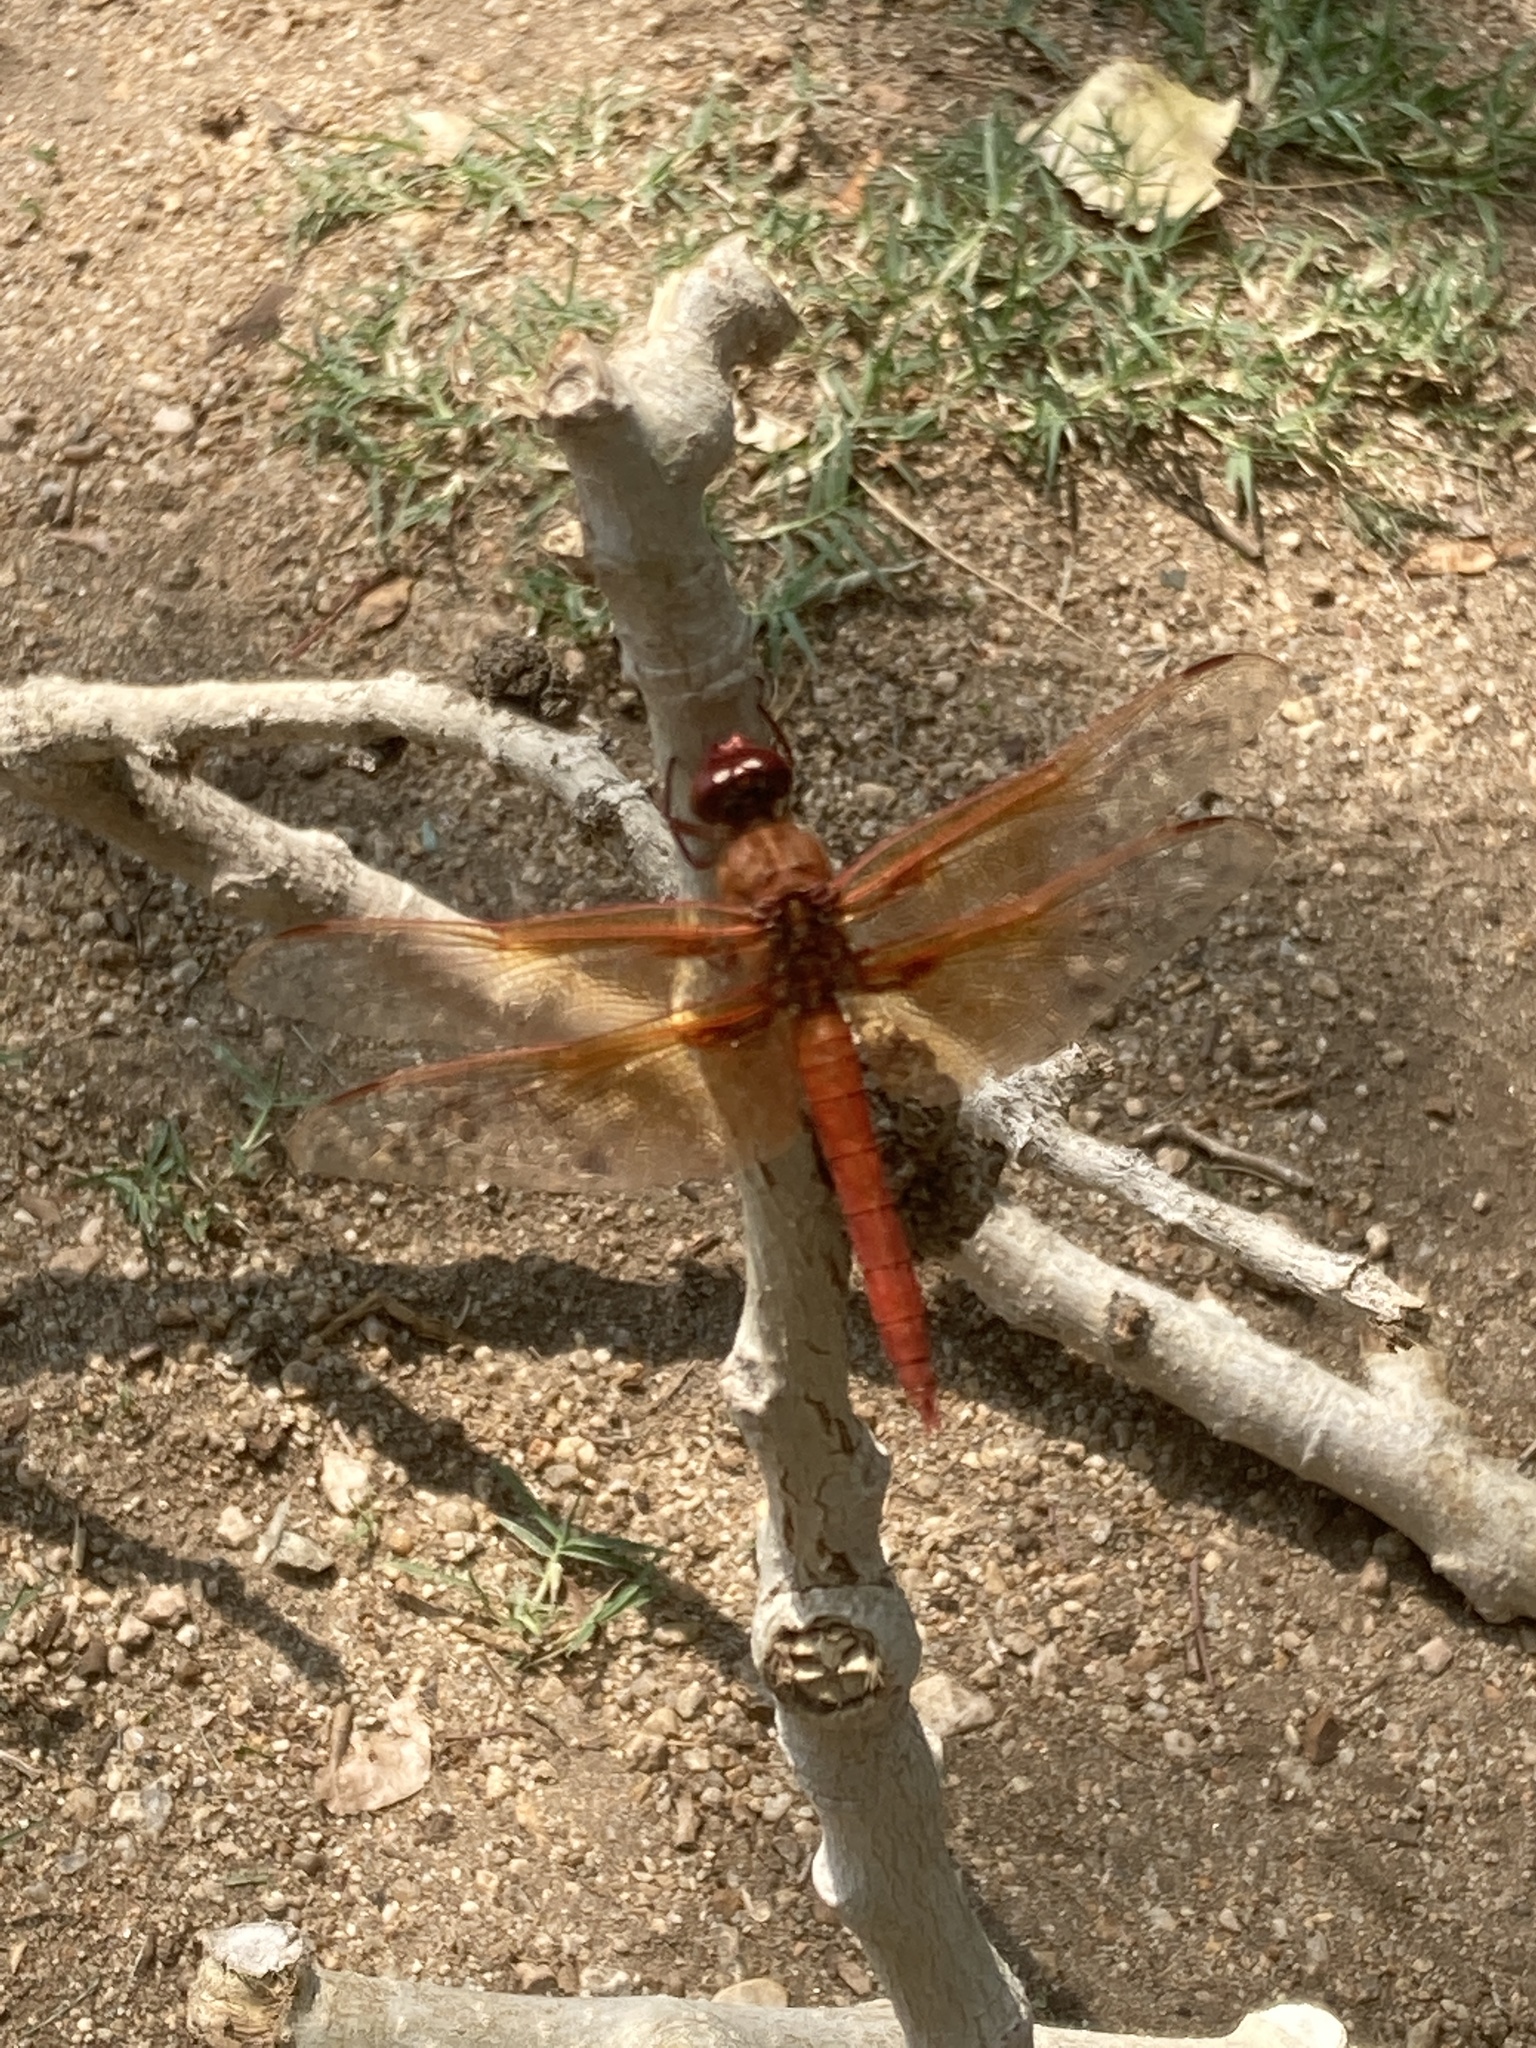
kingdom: Animalia
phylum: Arthropoda
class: Insecta
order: Odonata
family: Libellulidae
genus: Libellula
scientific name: Libellula saturata
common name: Flame skimmer
